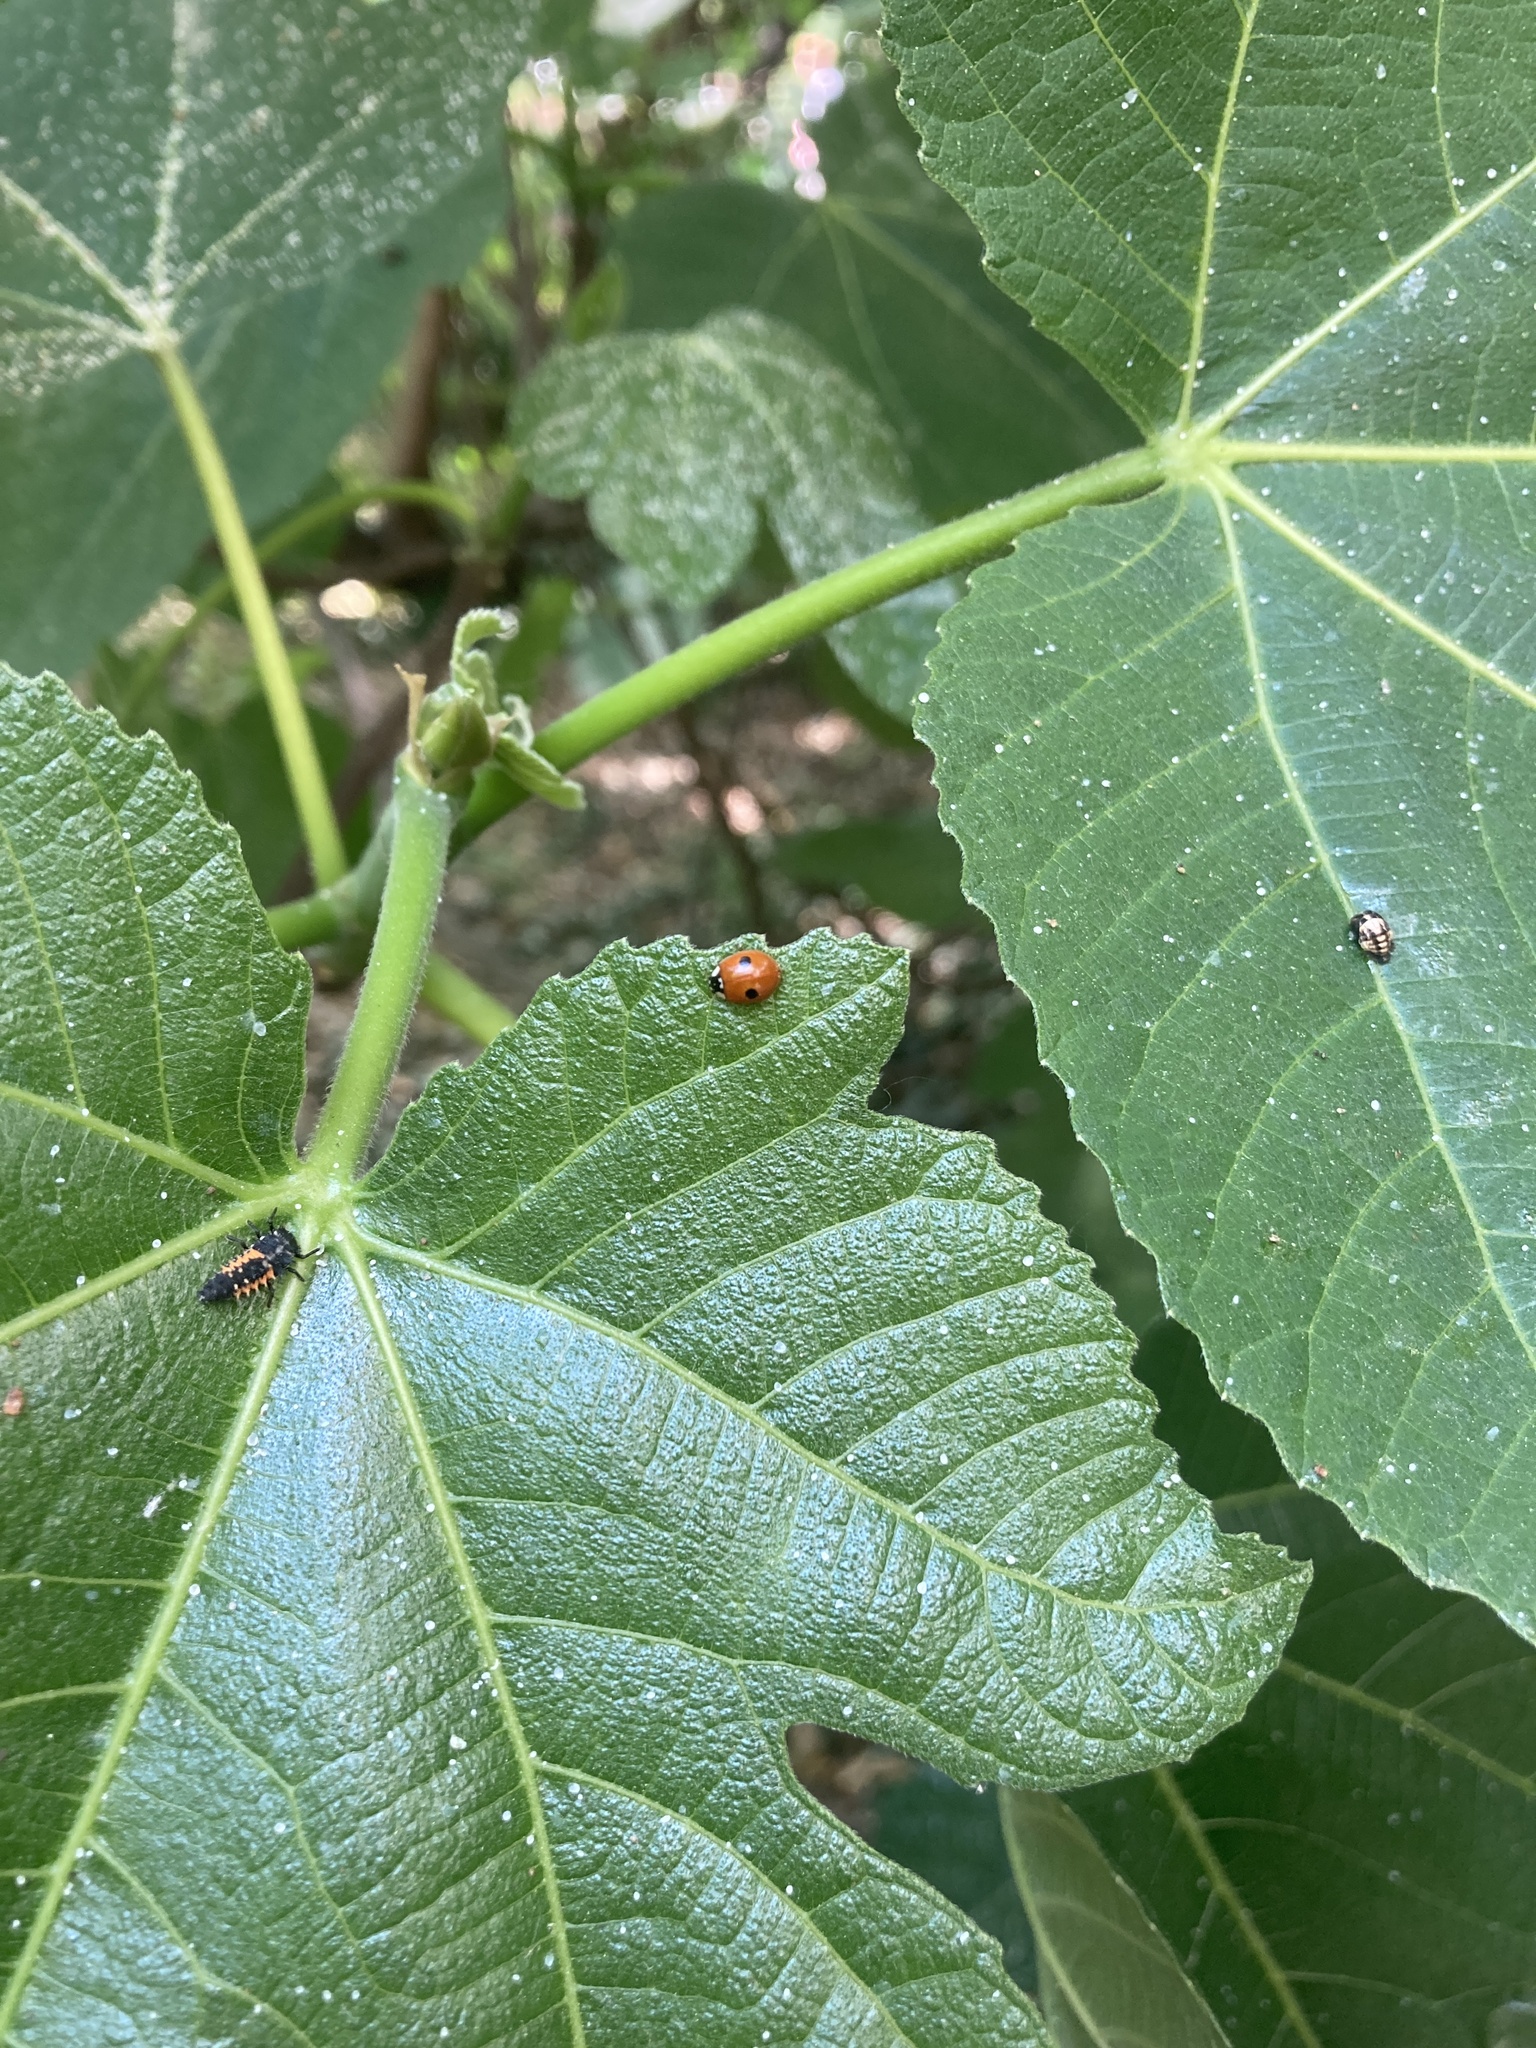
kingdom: Animalia
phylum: Arthropoda
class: Insecta
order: Coleoptera
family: Coccinellidae
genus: Adalia
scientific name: Adalia bipunctata
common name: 2-spot ladybird
